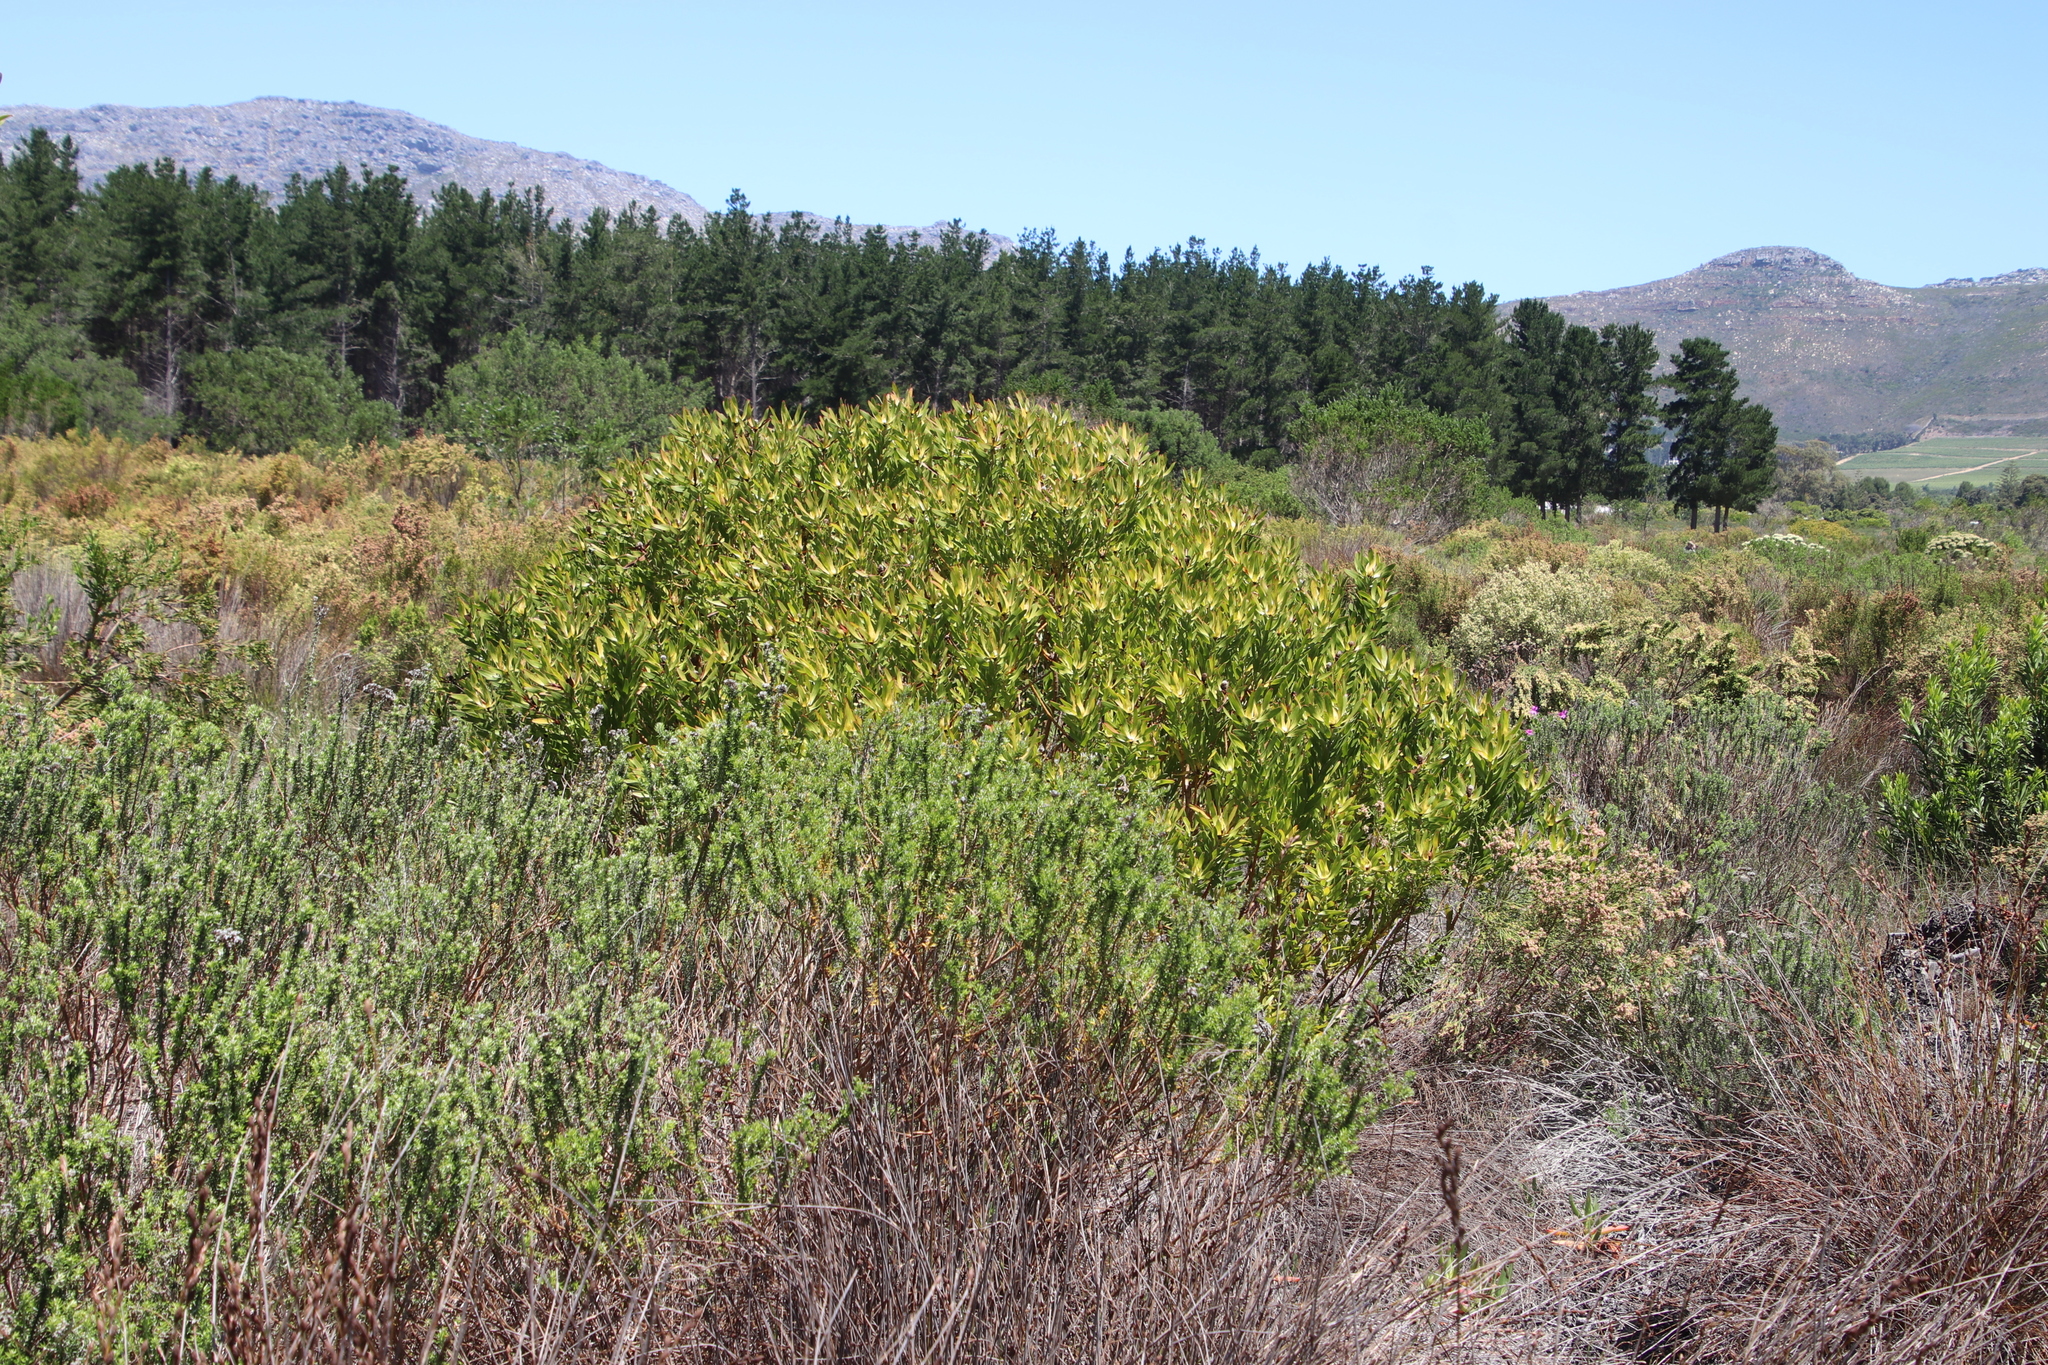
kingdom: Plantae
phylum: Tracheophyta
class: Magnoliopsida
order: Proteales
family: Proteaceae
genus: Leucadendron
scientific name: Leucadendron laureolum
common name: Golden sunshinebush
